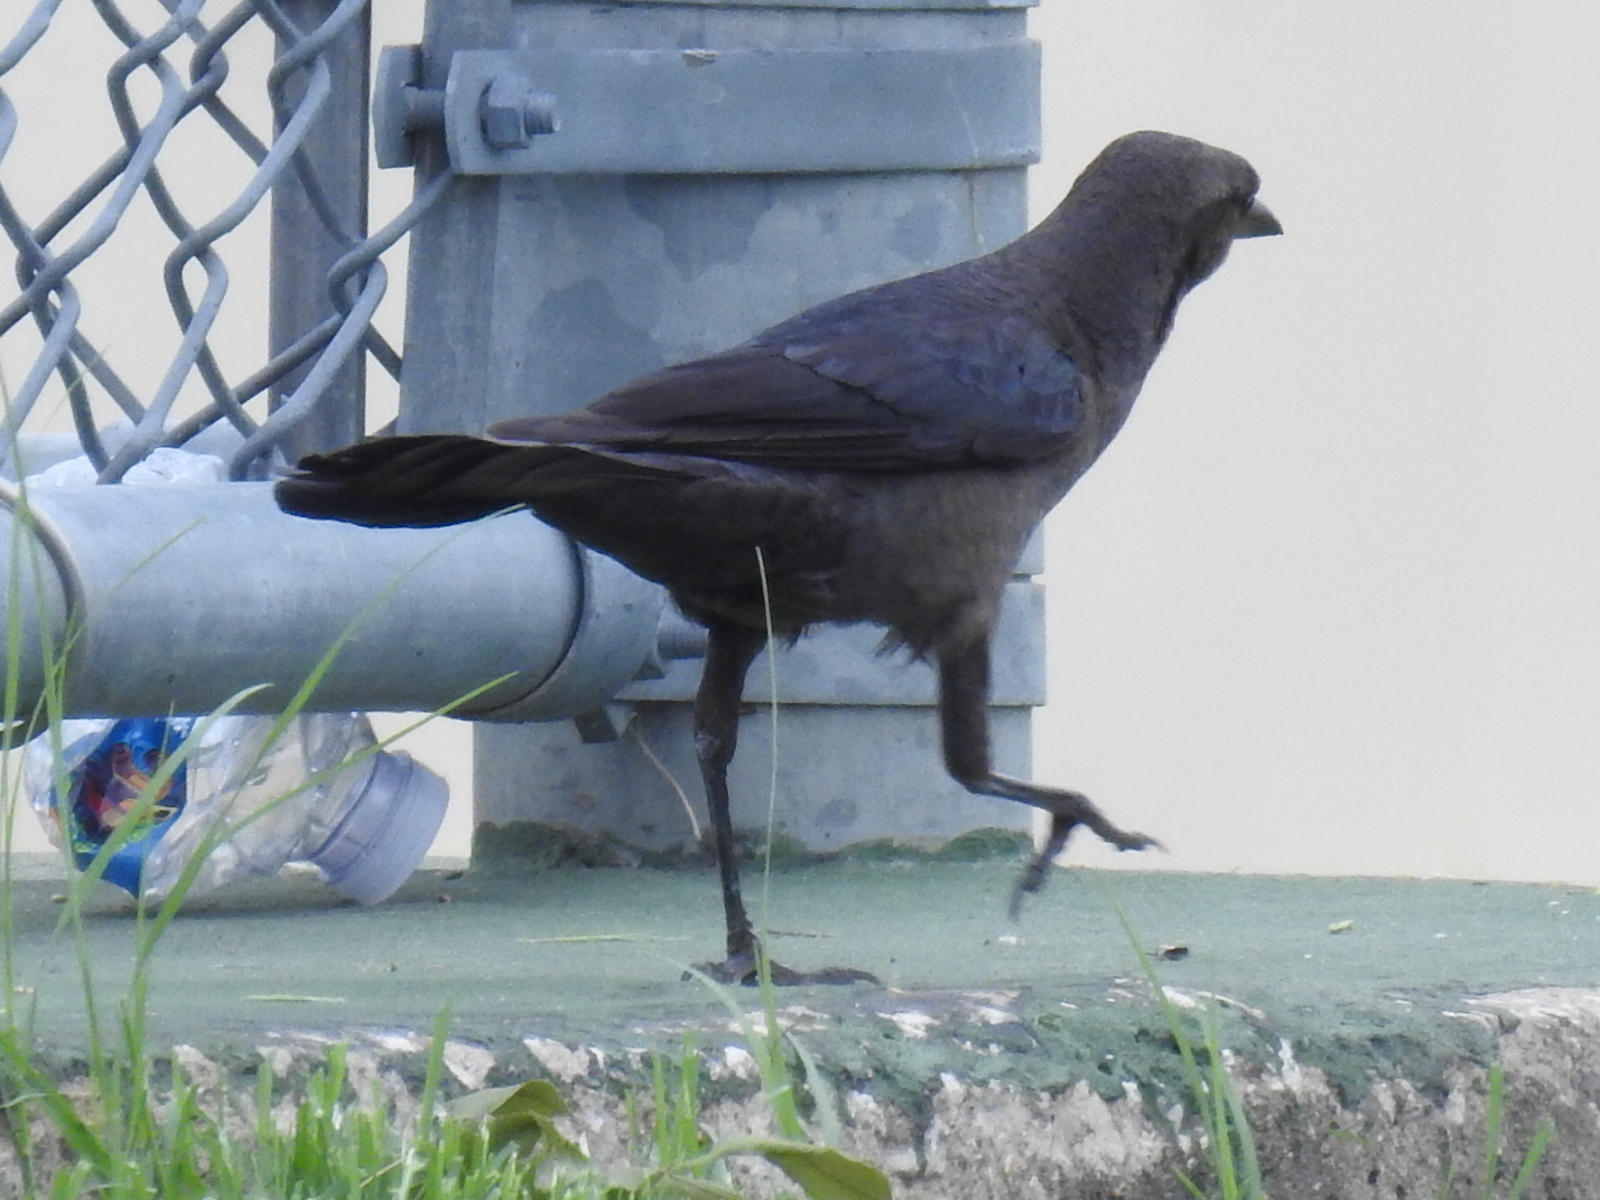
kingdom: Animalia
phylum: Chordata
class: Aves
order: Passeriformes
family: Icteridae
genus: Quiscalus
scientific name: Quiscalus mexicanus
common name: Great-tailed grackle
